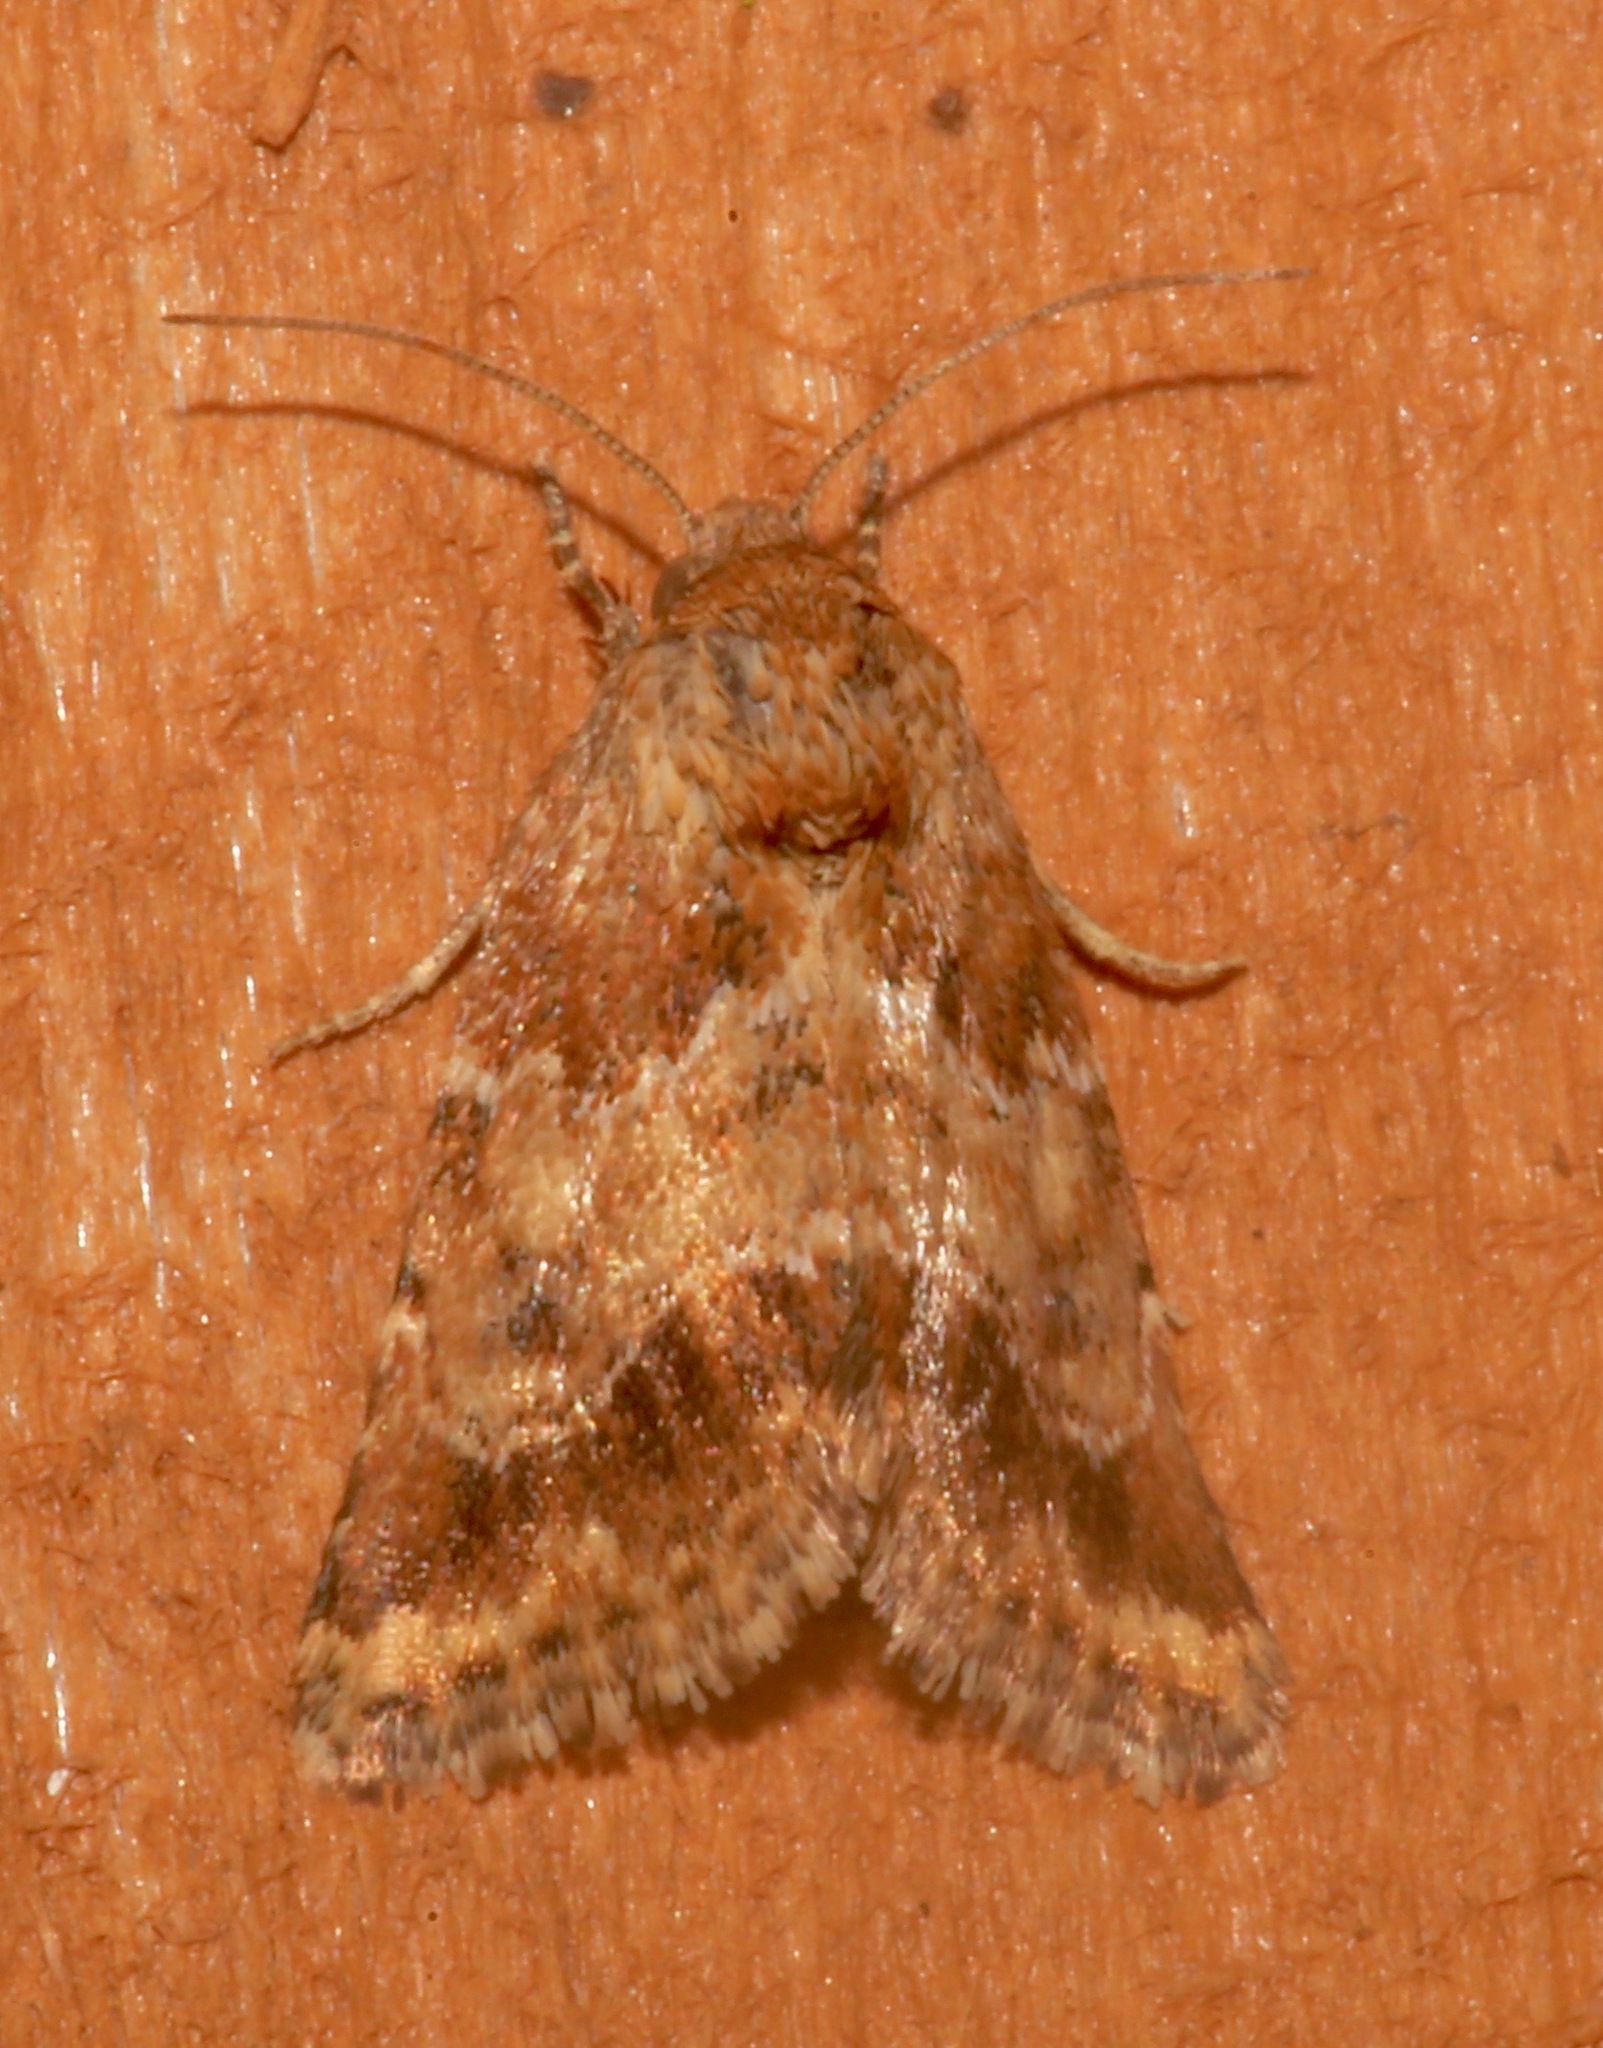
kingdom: Animalia
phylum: Arthropoda
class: Insecta
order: Lepidoptera
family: Noctuidae
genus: Schinia
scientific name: Schinia sordida
